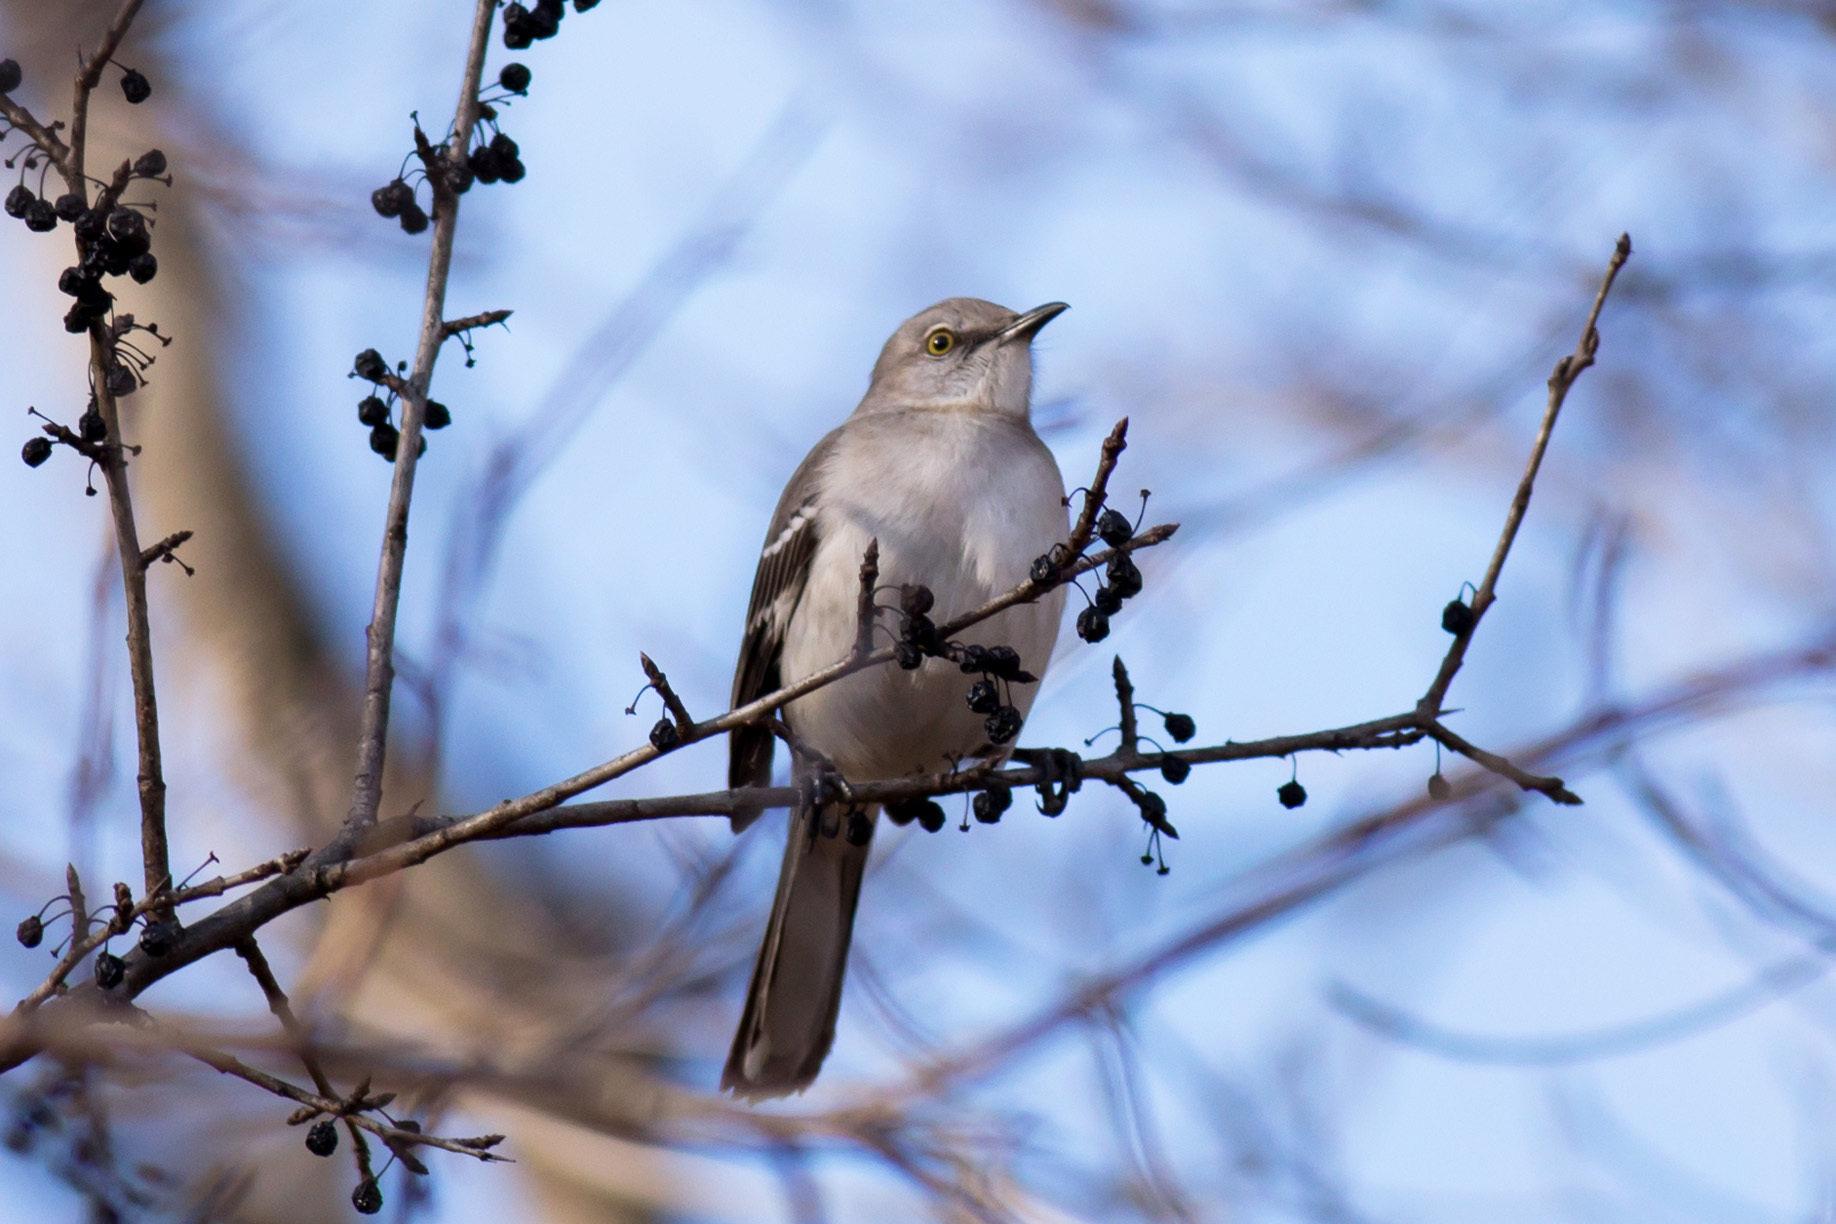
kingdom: Animalia
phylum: Chordata
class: Aves
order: Passeriformes
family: Mimidae
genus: Mimus
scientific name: Mimus polyglottos
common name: Northern mockingbird
